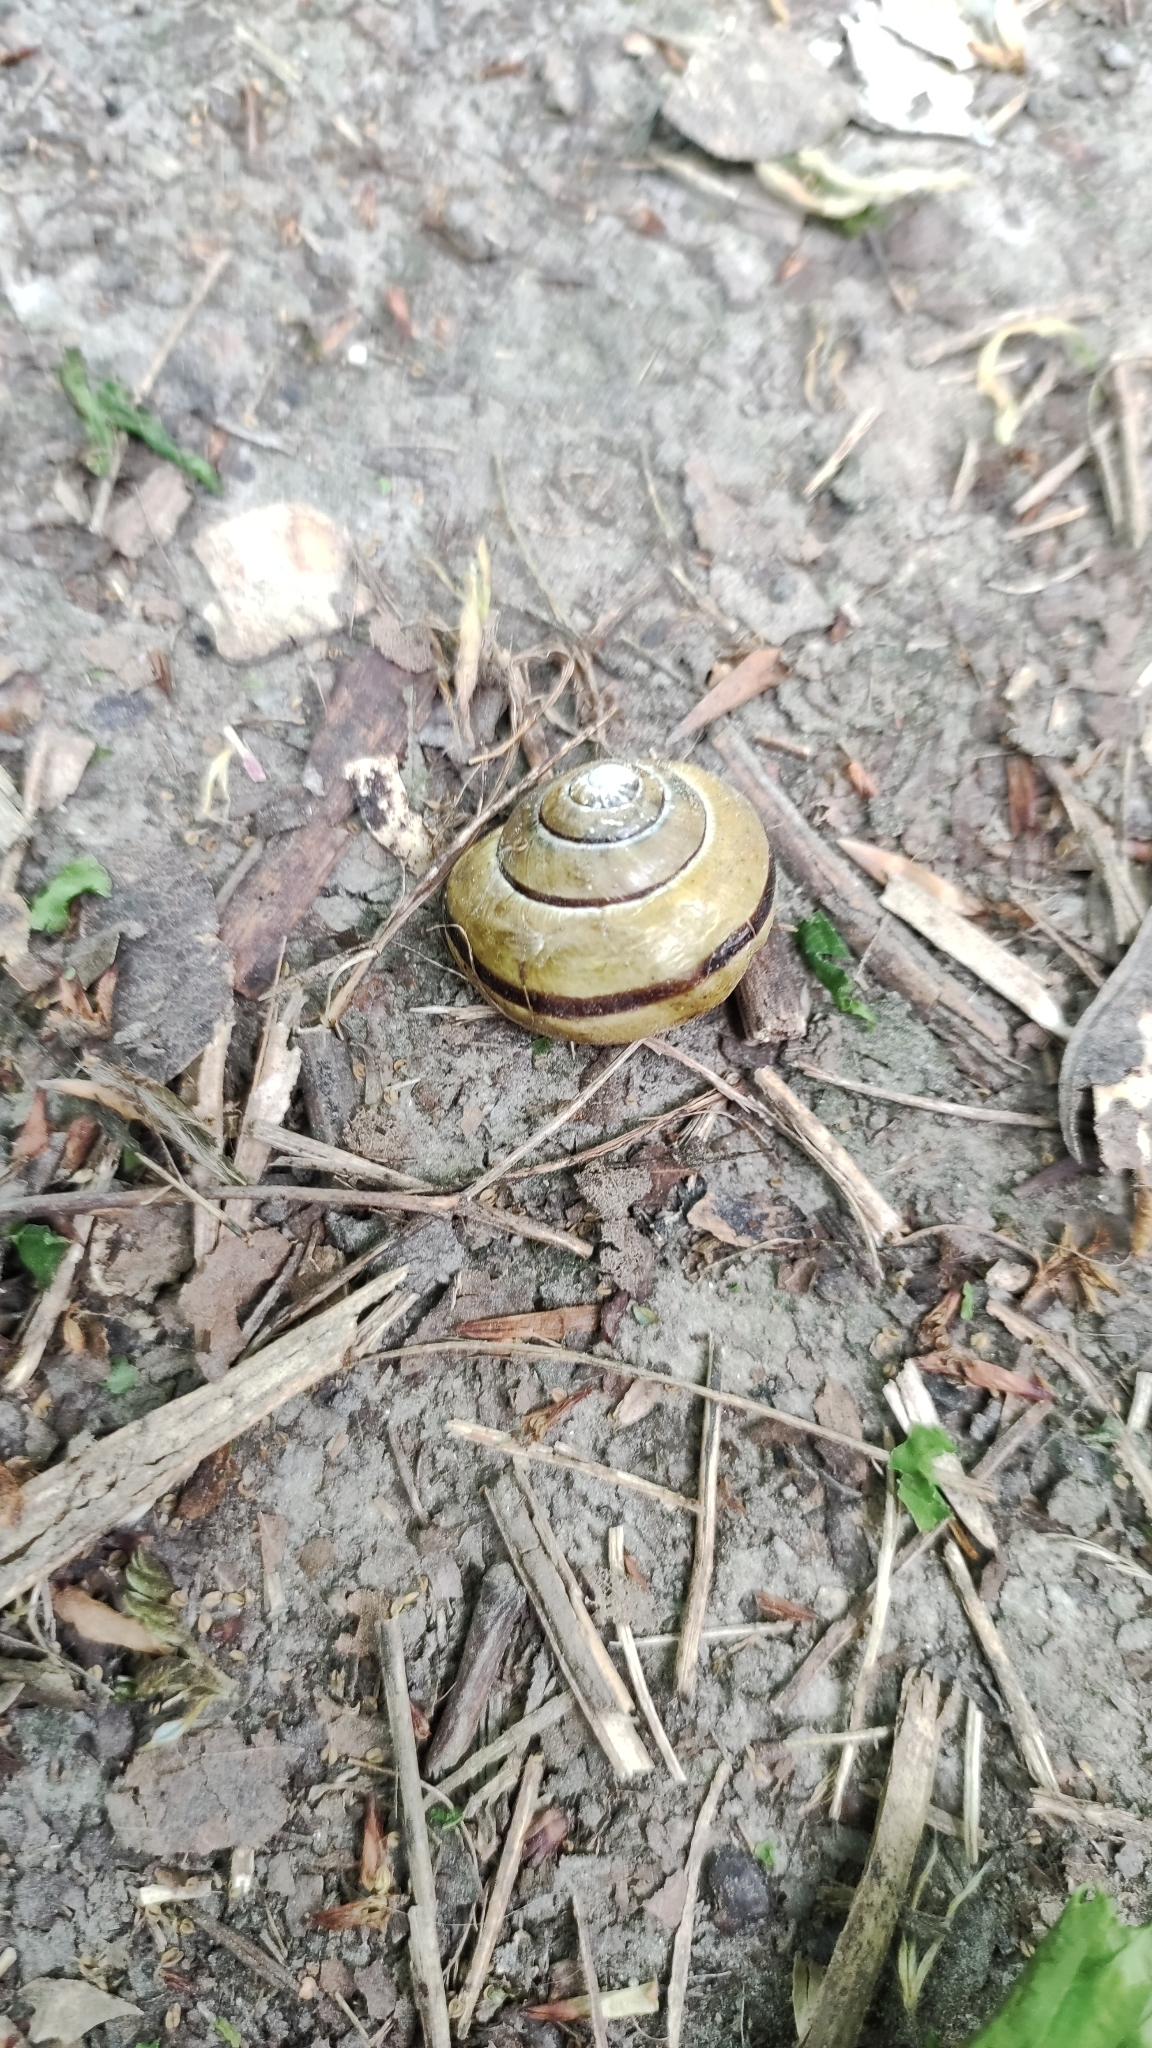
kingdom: Animalia
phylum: Mollusca
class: Gastropoda
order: Stylommatophora
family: Helicidae
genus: Cepaea
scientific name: Cepaea nemoralis
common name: Grovesnail
